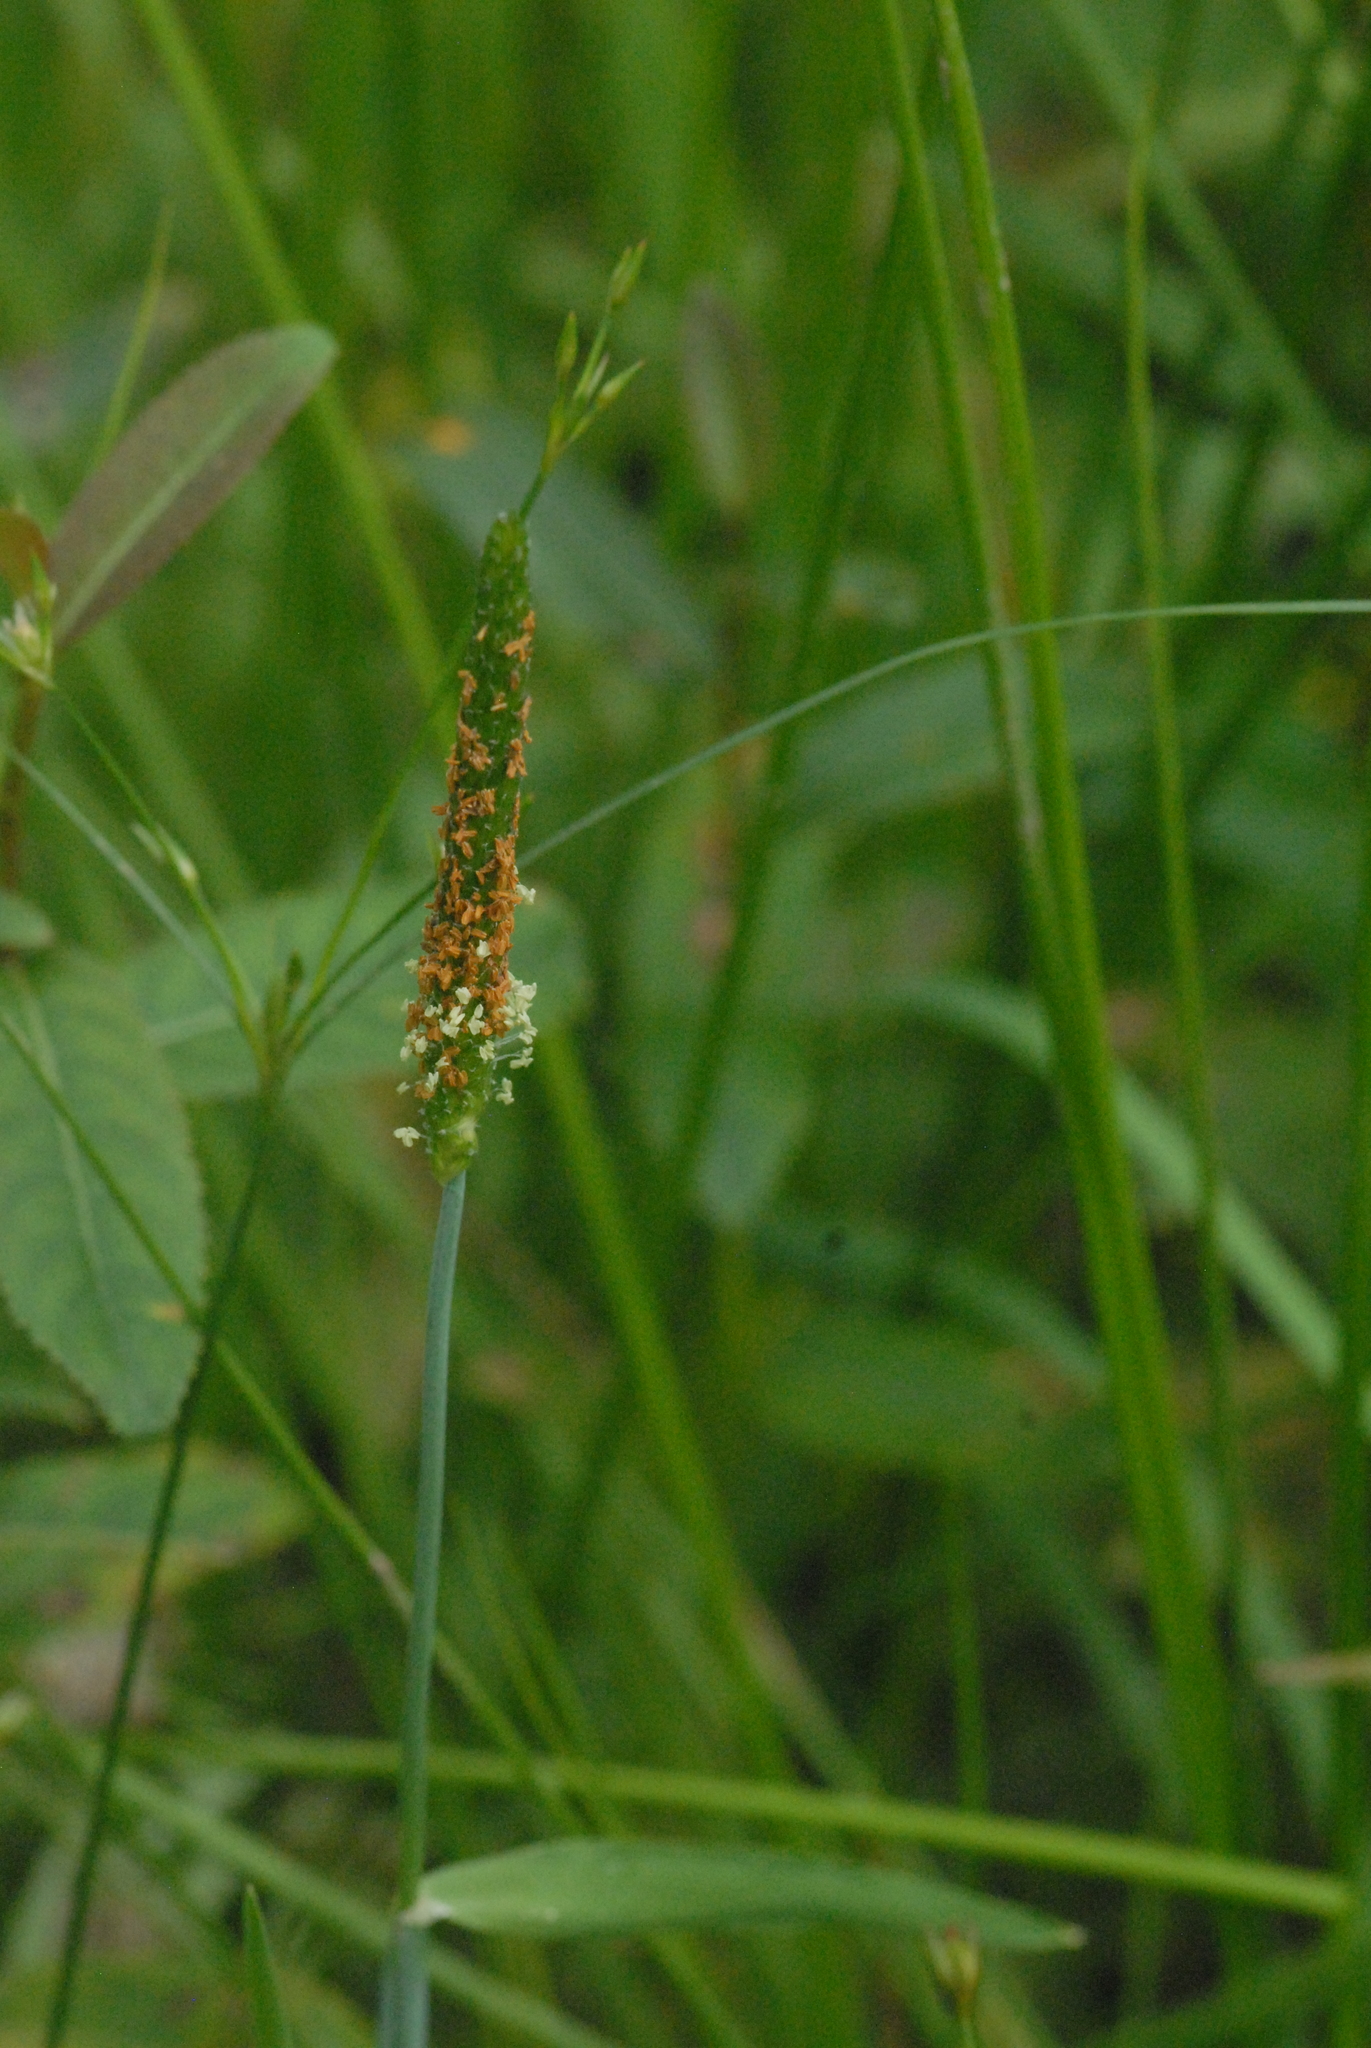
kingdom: Plantae
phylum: Tracheophyta
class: Liliopsida
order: Poales
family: Poaceae
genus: Alopecurus
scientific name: Alopecurus aequalis
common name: Orange foxtail
